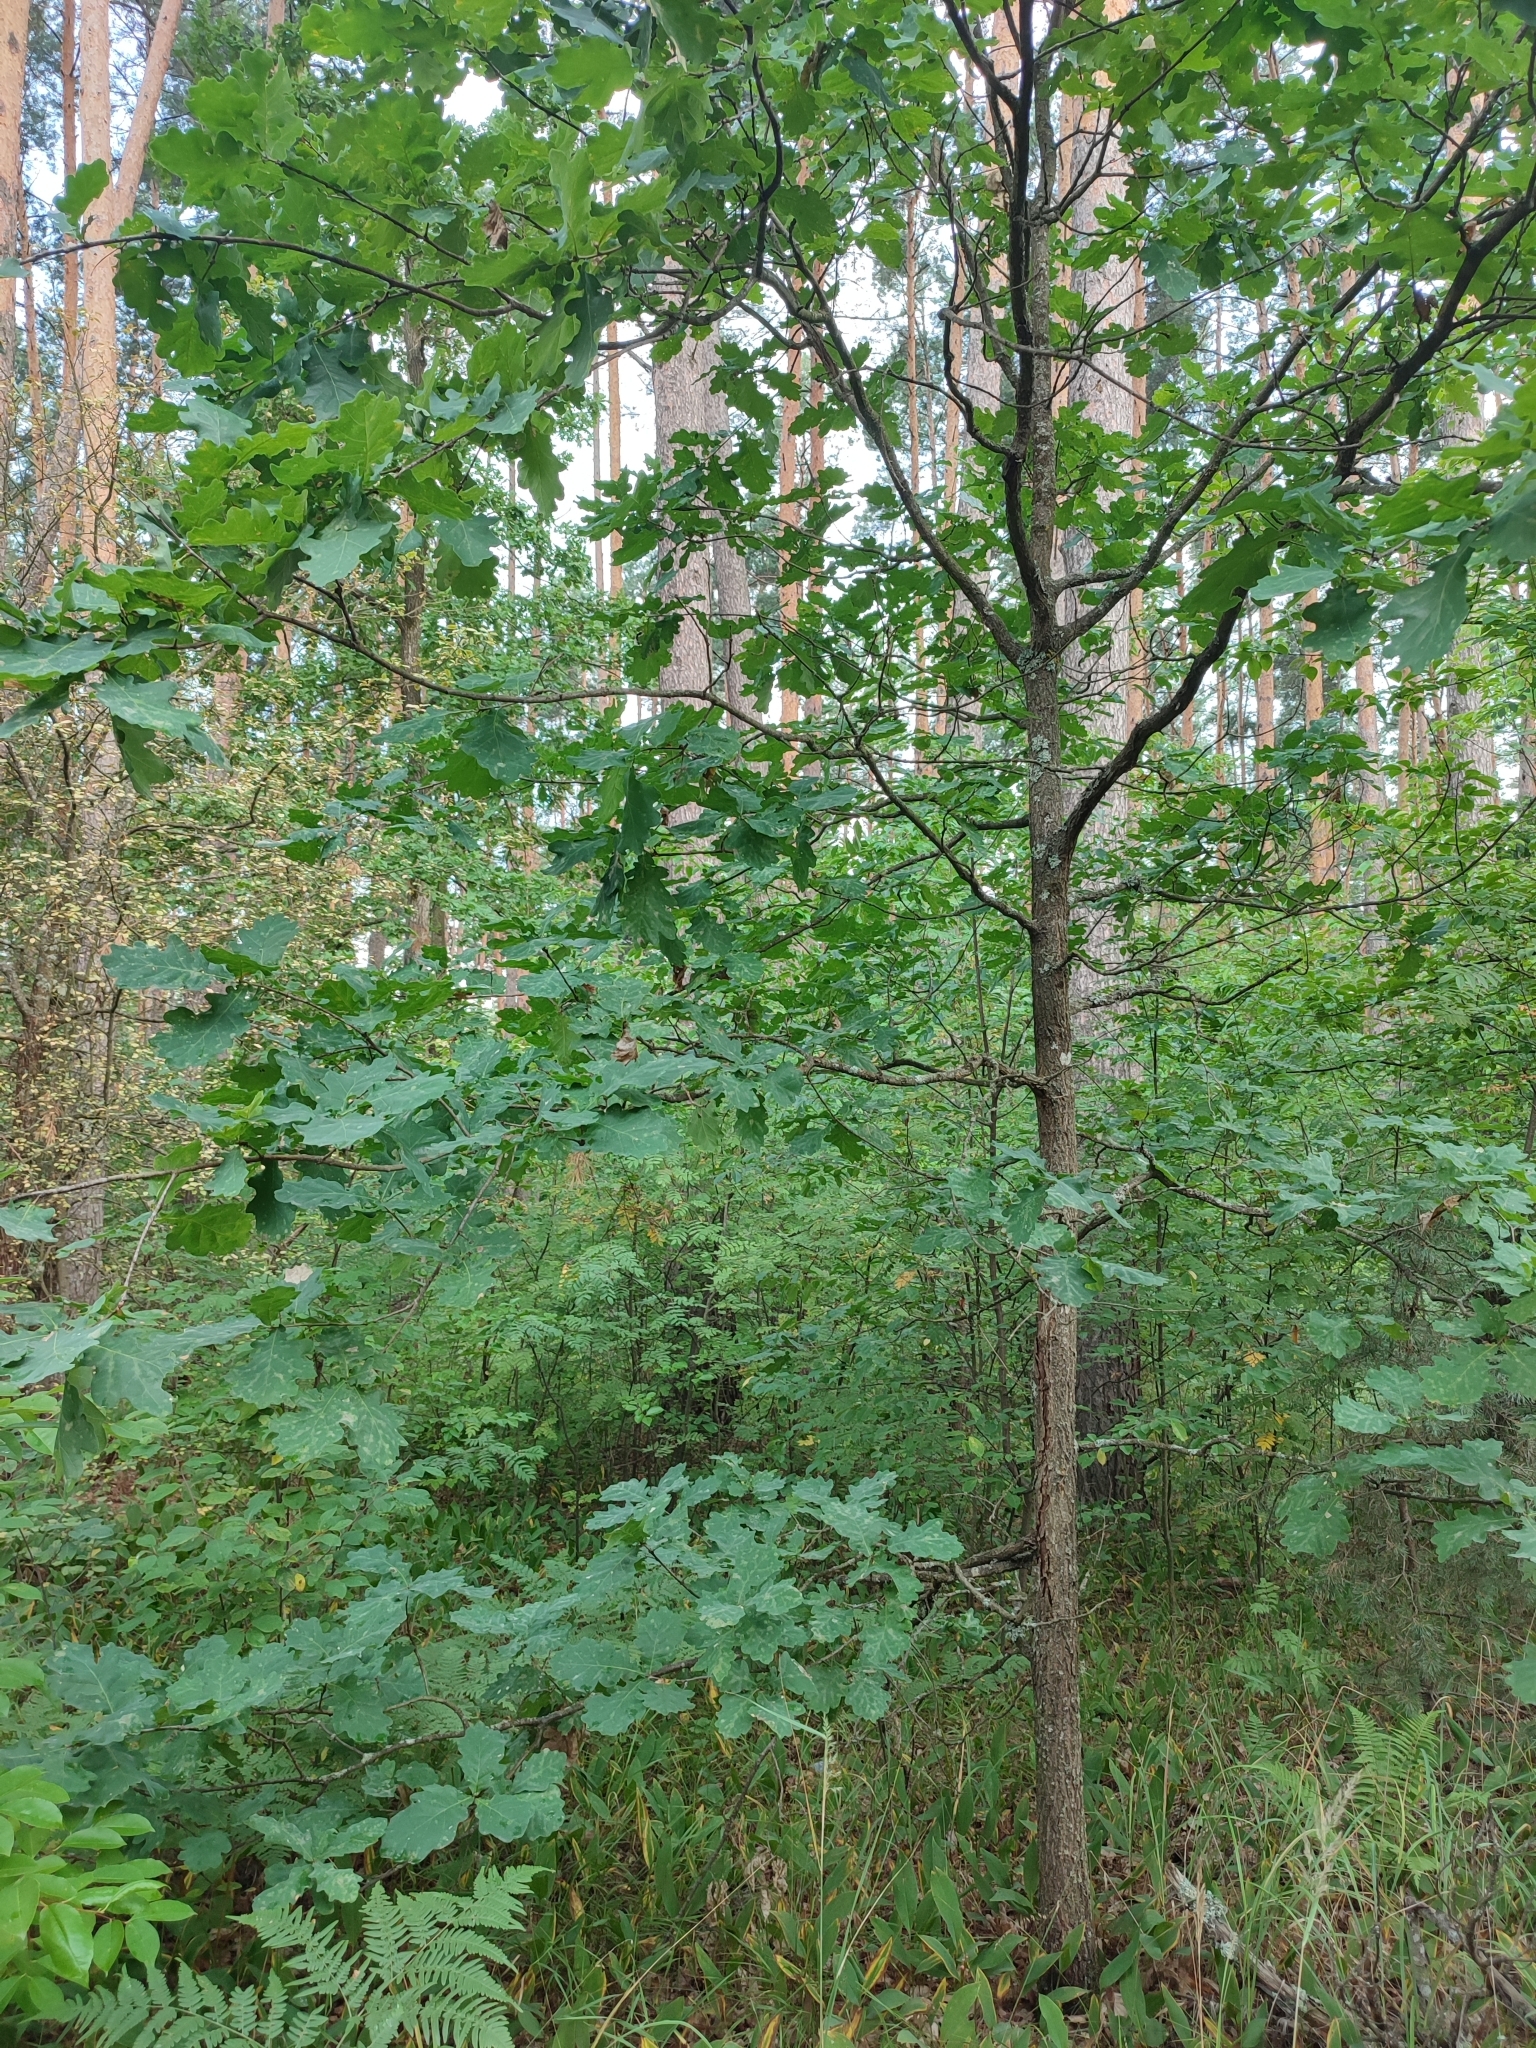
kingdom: Plantae
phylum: Tracheophyta
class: Magnoliopsida
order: Fagales
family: Fagaceae
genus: Quercus
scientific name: Quercus robur
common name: Pedunculate oak
